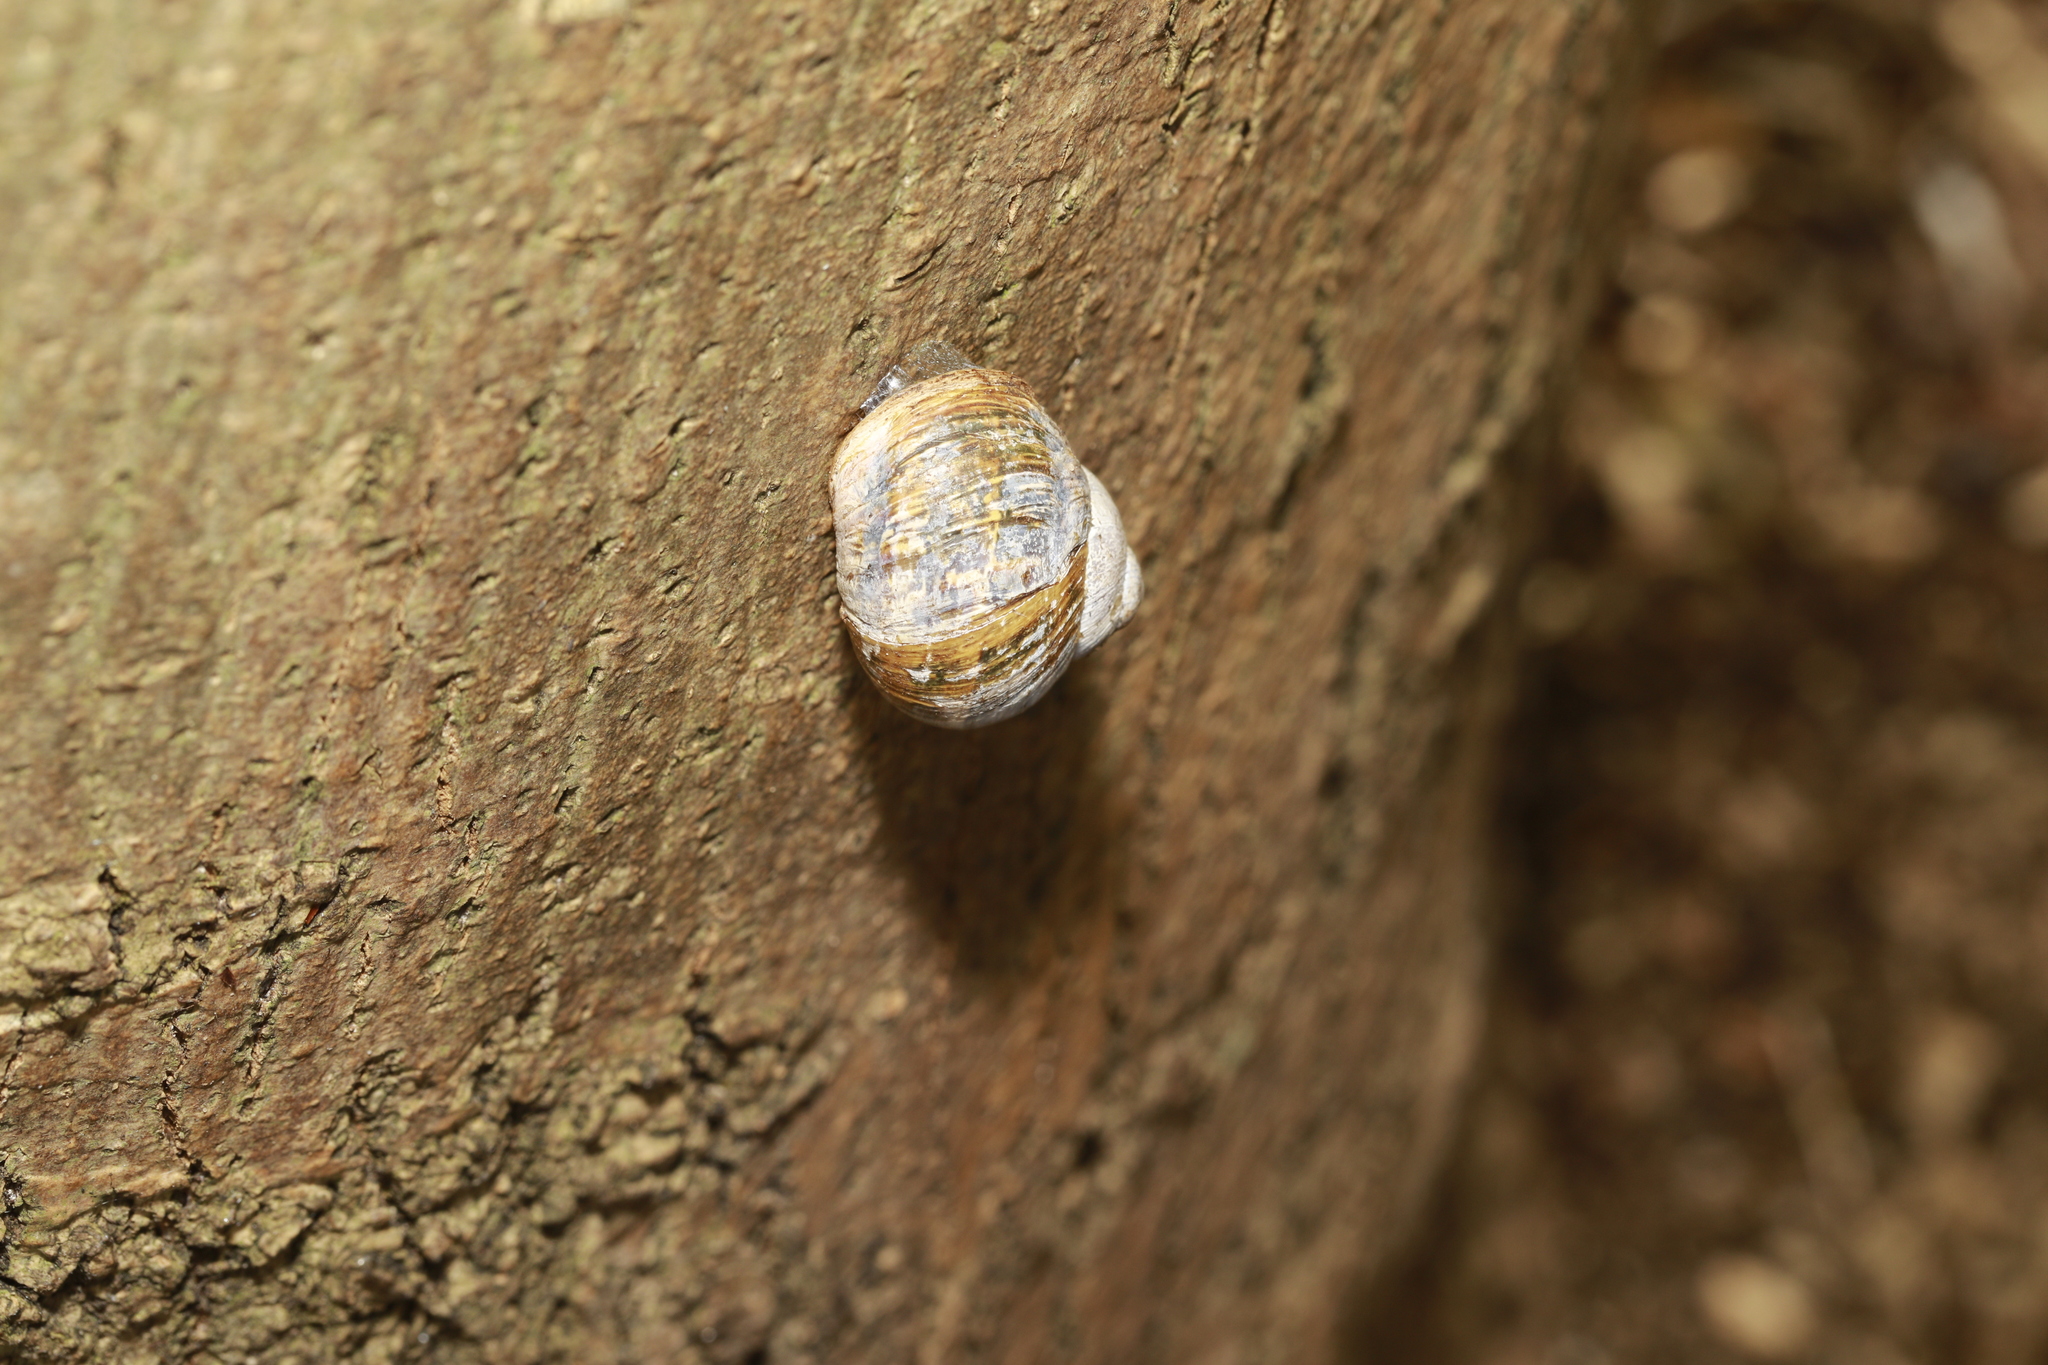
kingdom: Animalia
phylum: Mollusca
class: Gastropoda
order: Stylommatophora
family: Helicidae
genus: Cornu
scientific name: Cornu aspersum
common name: Brown garden snail
